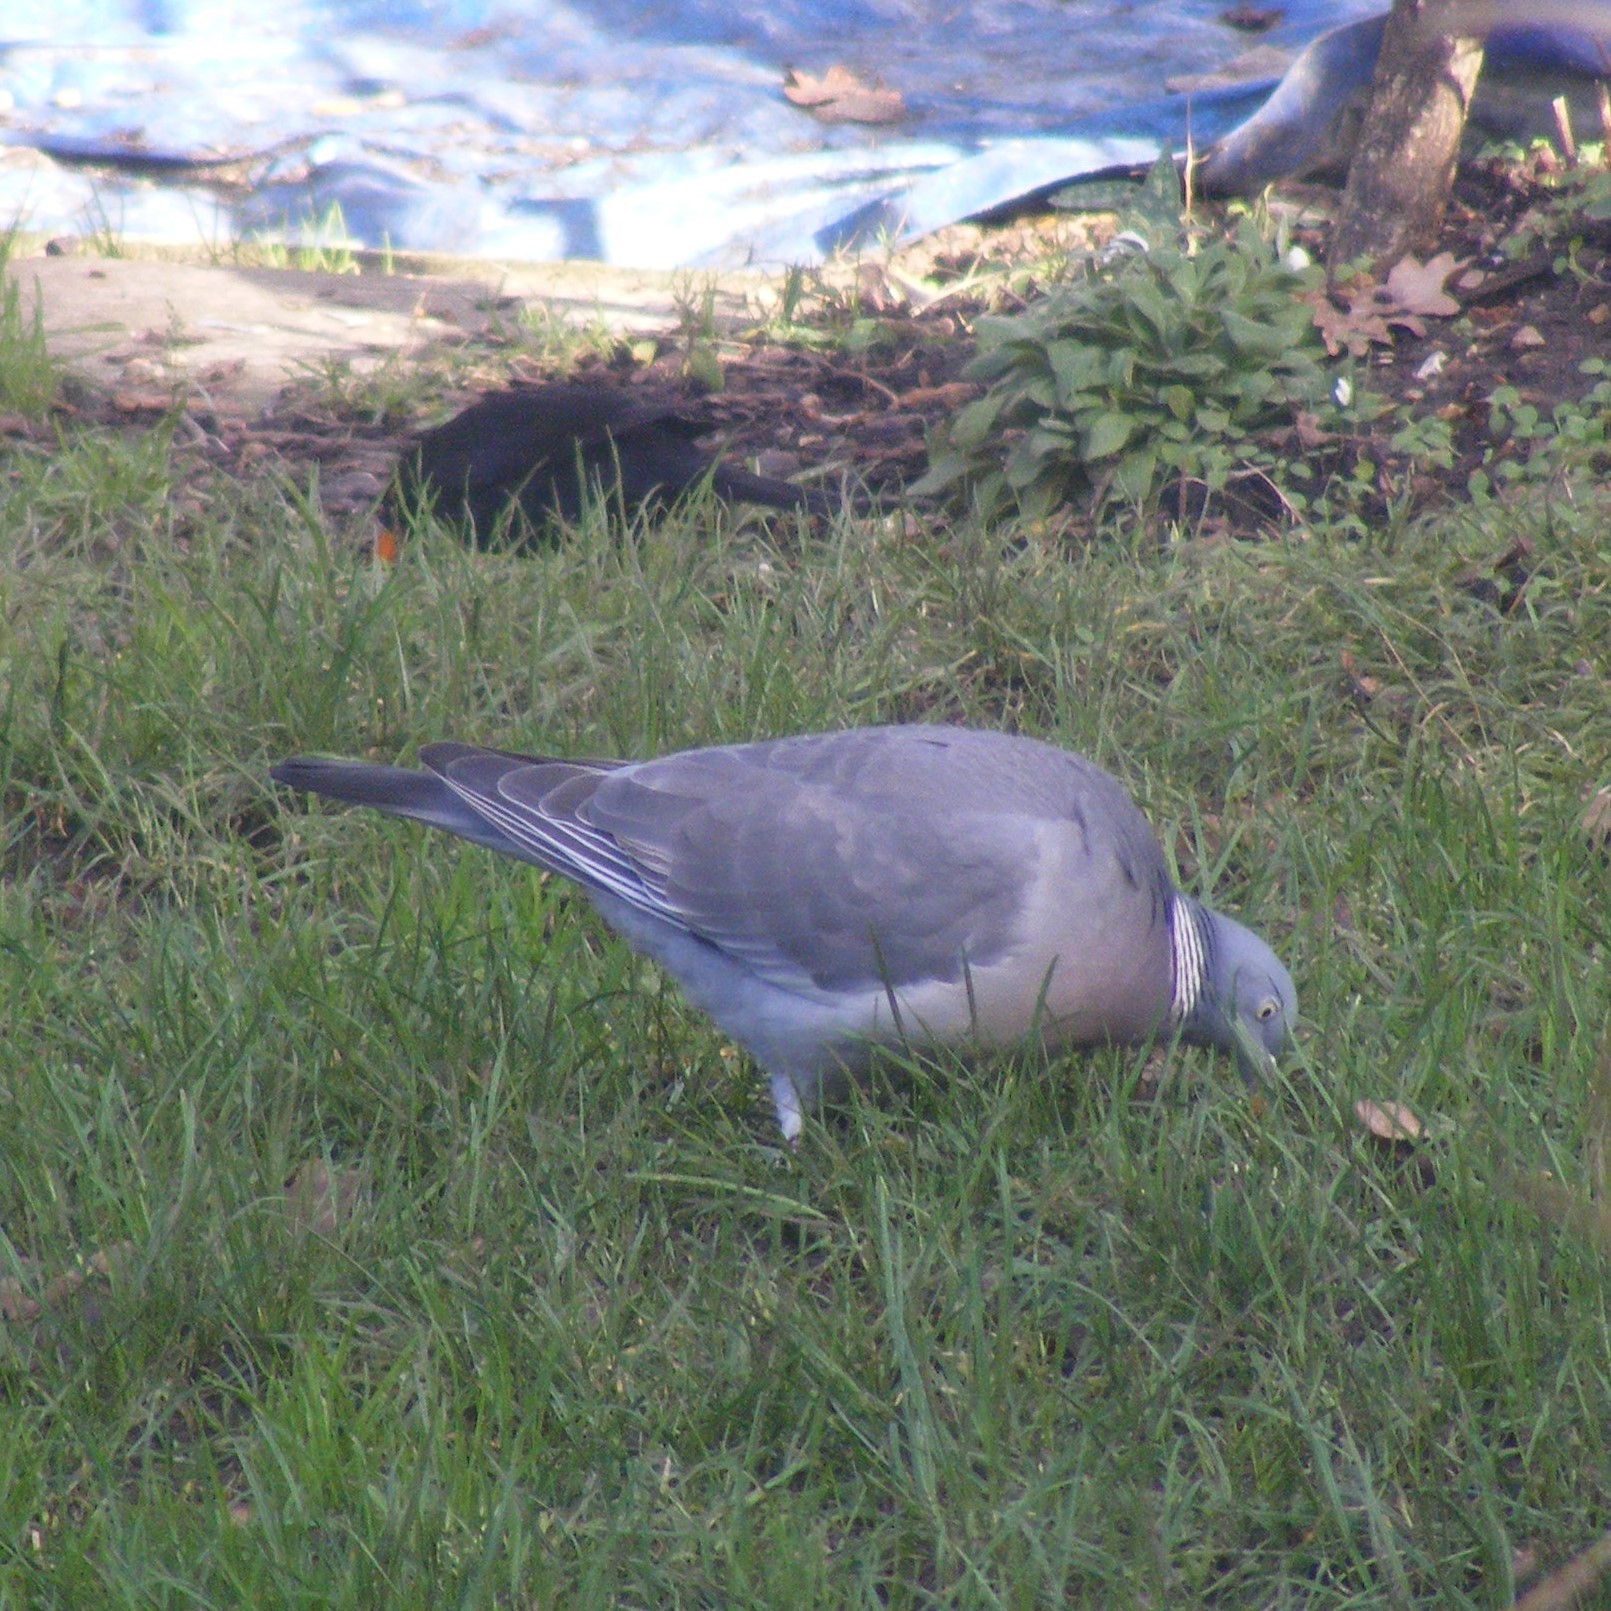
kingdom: Animalia
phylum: Chordata
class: Aves
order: Columbiformes
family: Columbidae
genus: Columba
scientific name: Columba palumbus
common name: Common wood pigeon
